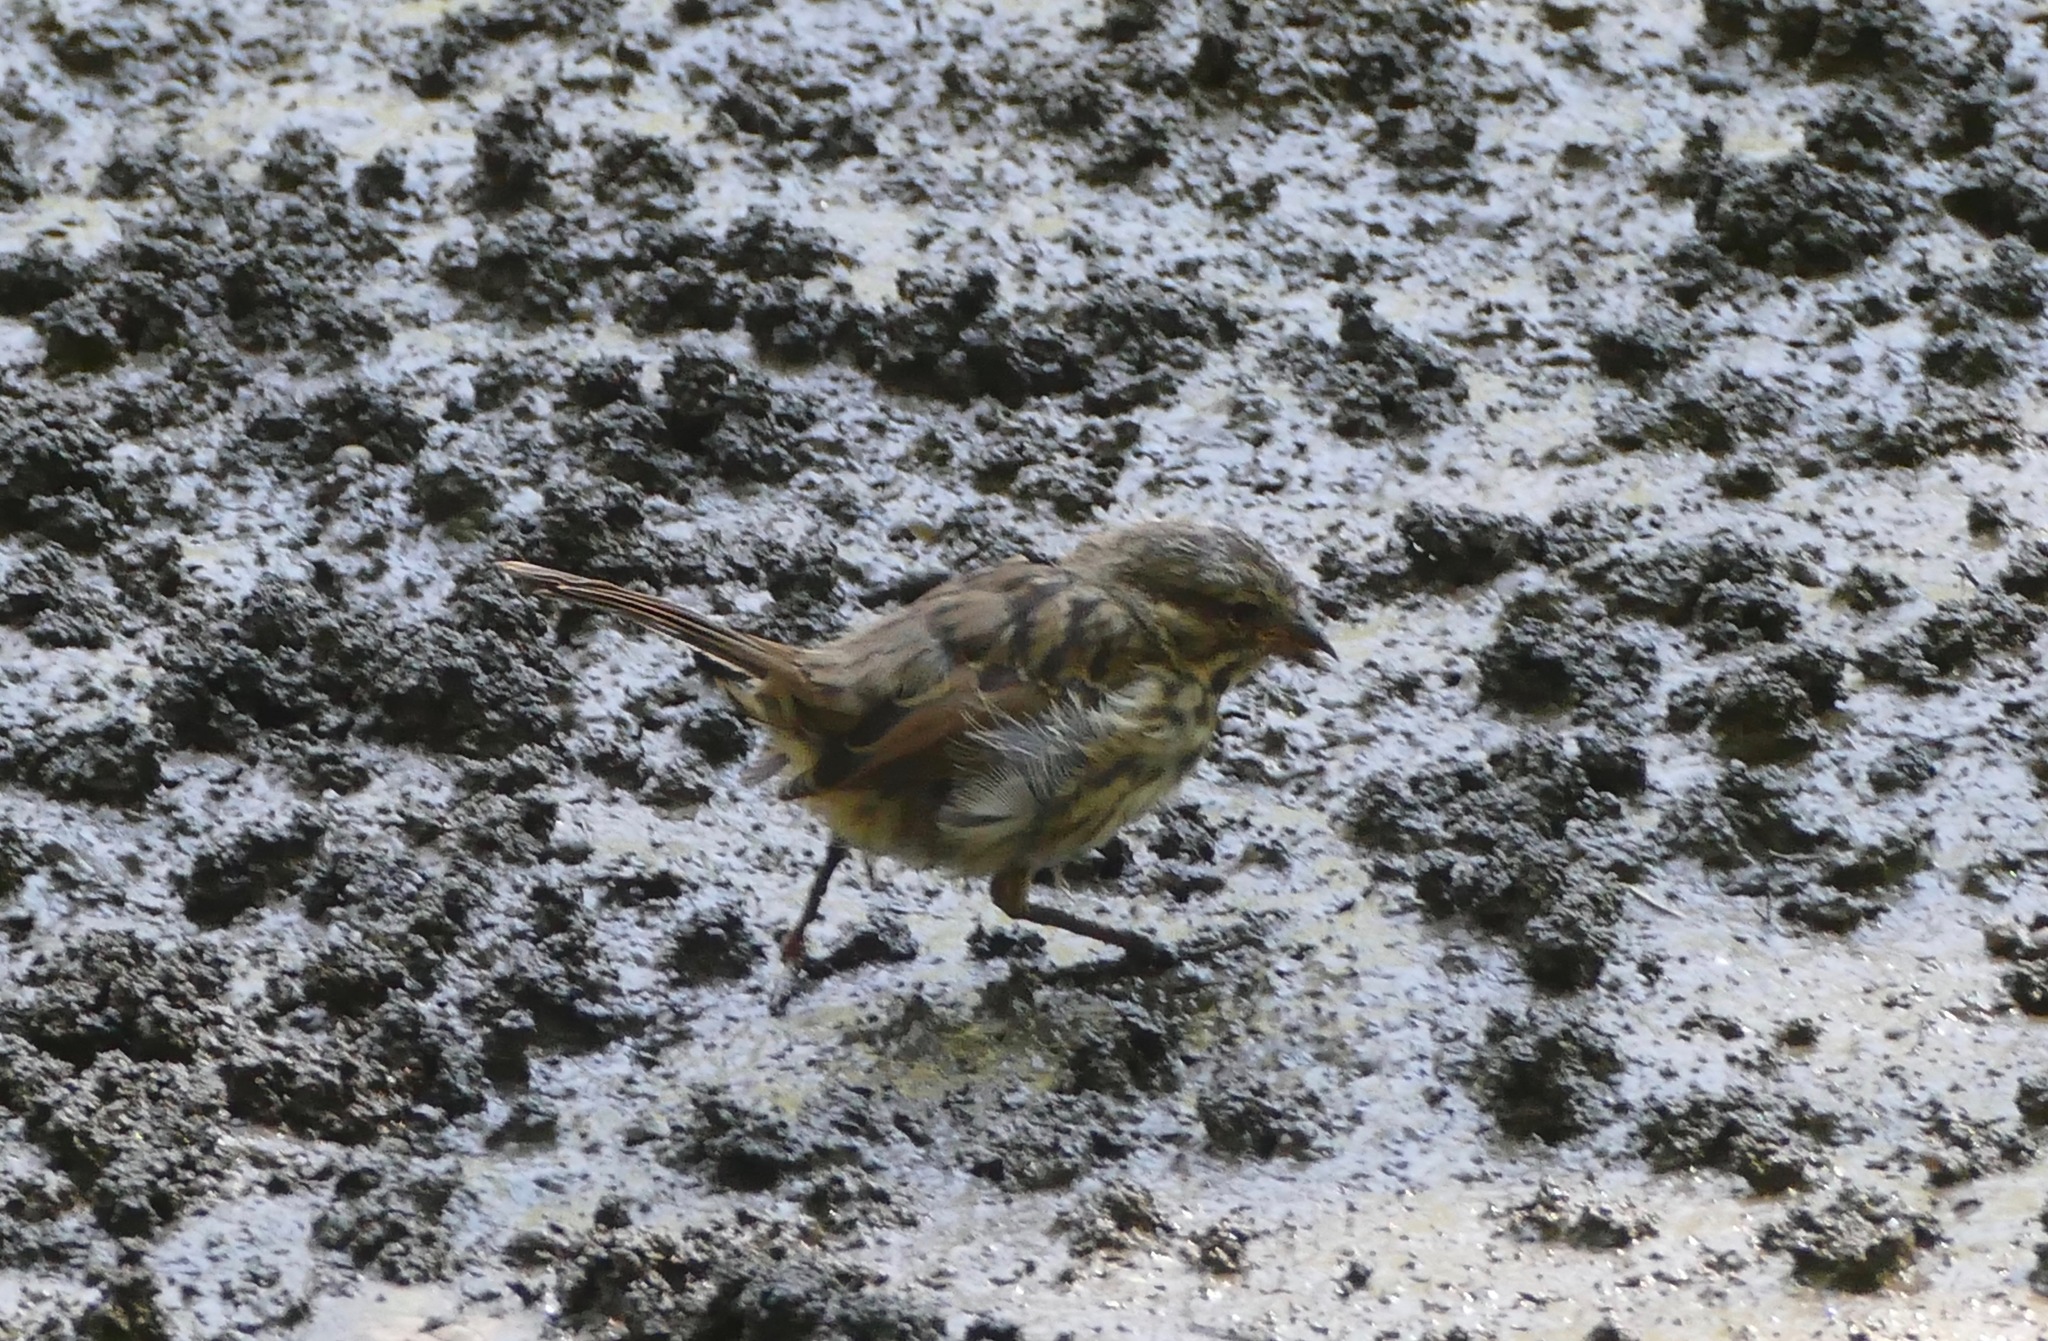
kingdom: Animalia
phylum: Chordata
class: Aves
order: Passeriformes
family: Passerellidae
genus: Melospiza
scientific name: Melospiza melodia
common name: Song sparrow
